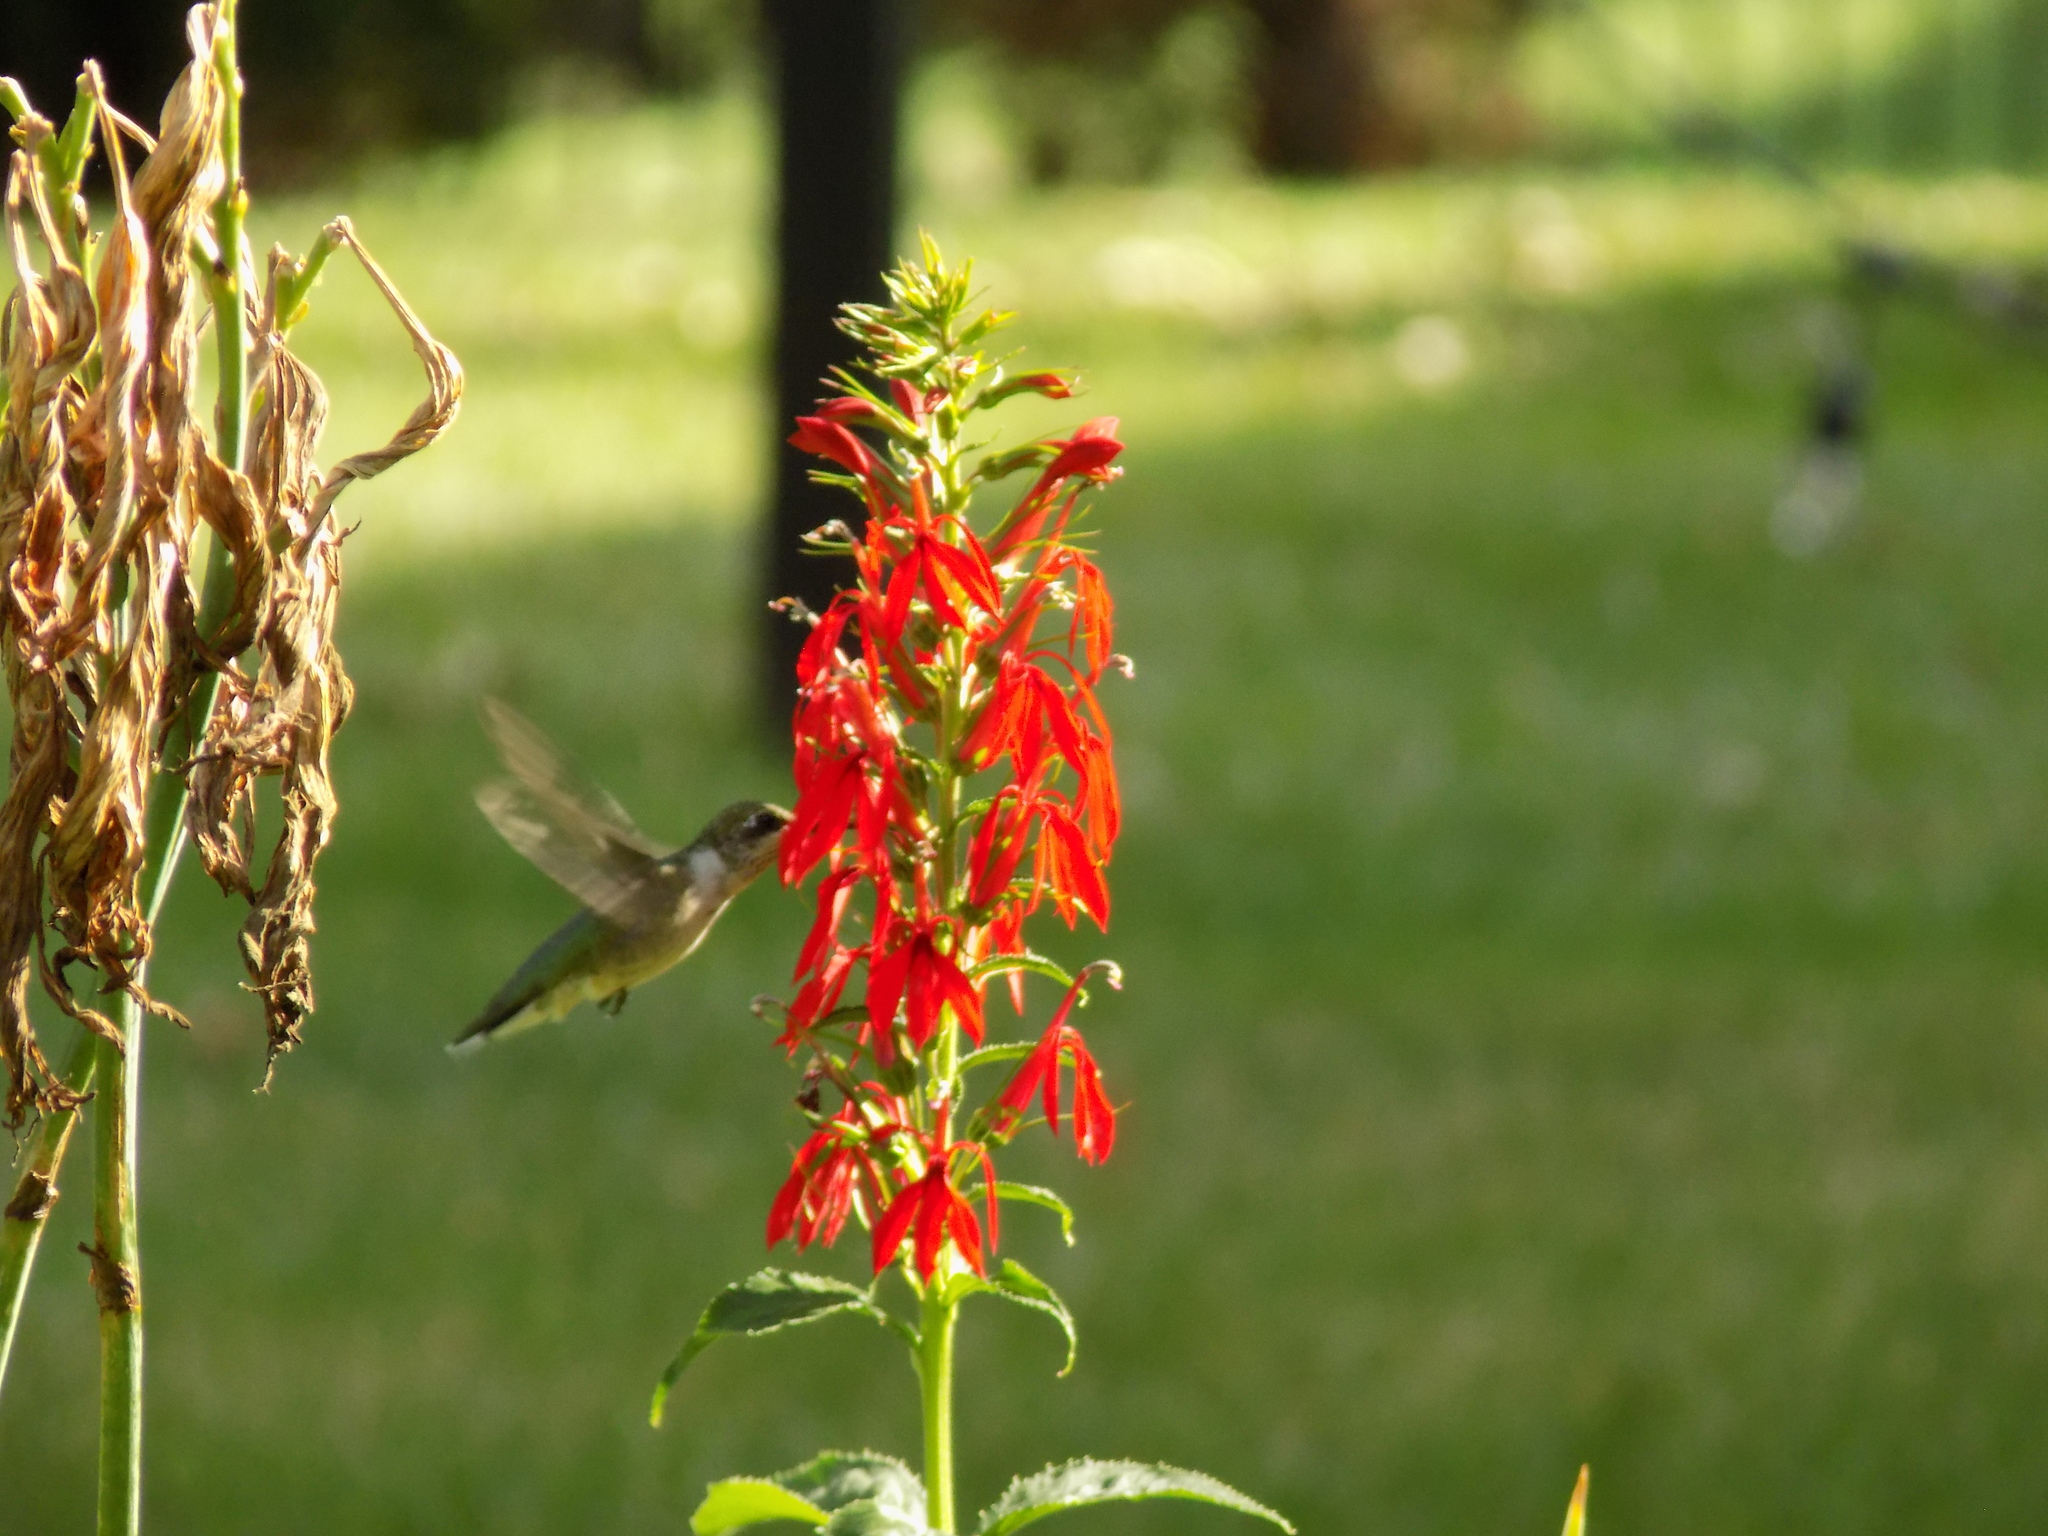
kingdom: Animalia
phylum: Chordata
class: Aves
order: Apodiformes
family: Trochilidae
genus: Archilochus
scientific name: Archilochus colubris
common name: Ruby-throated hummingbird
